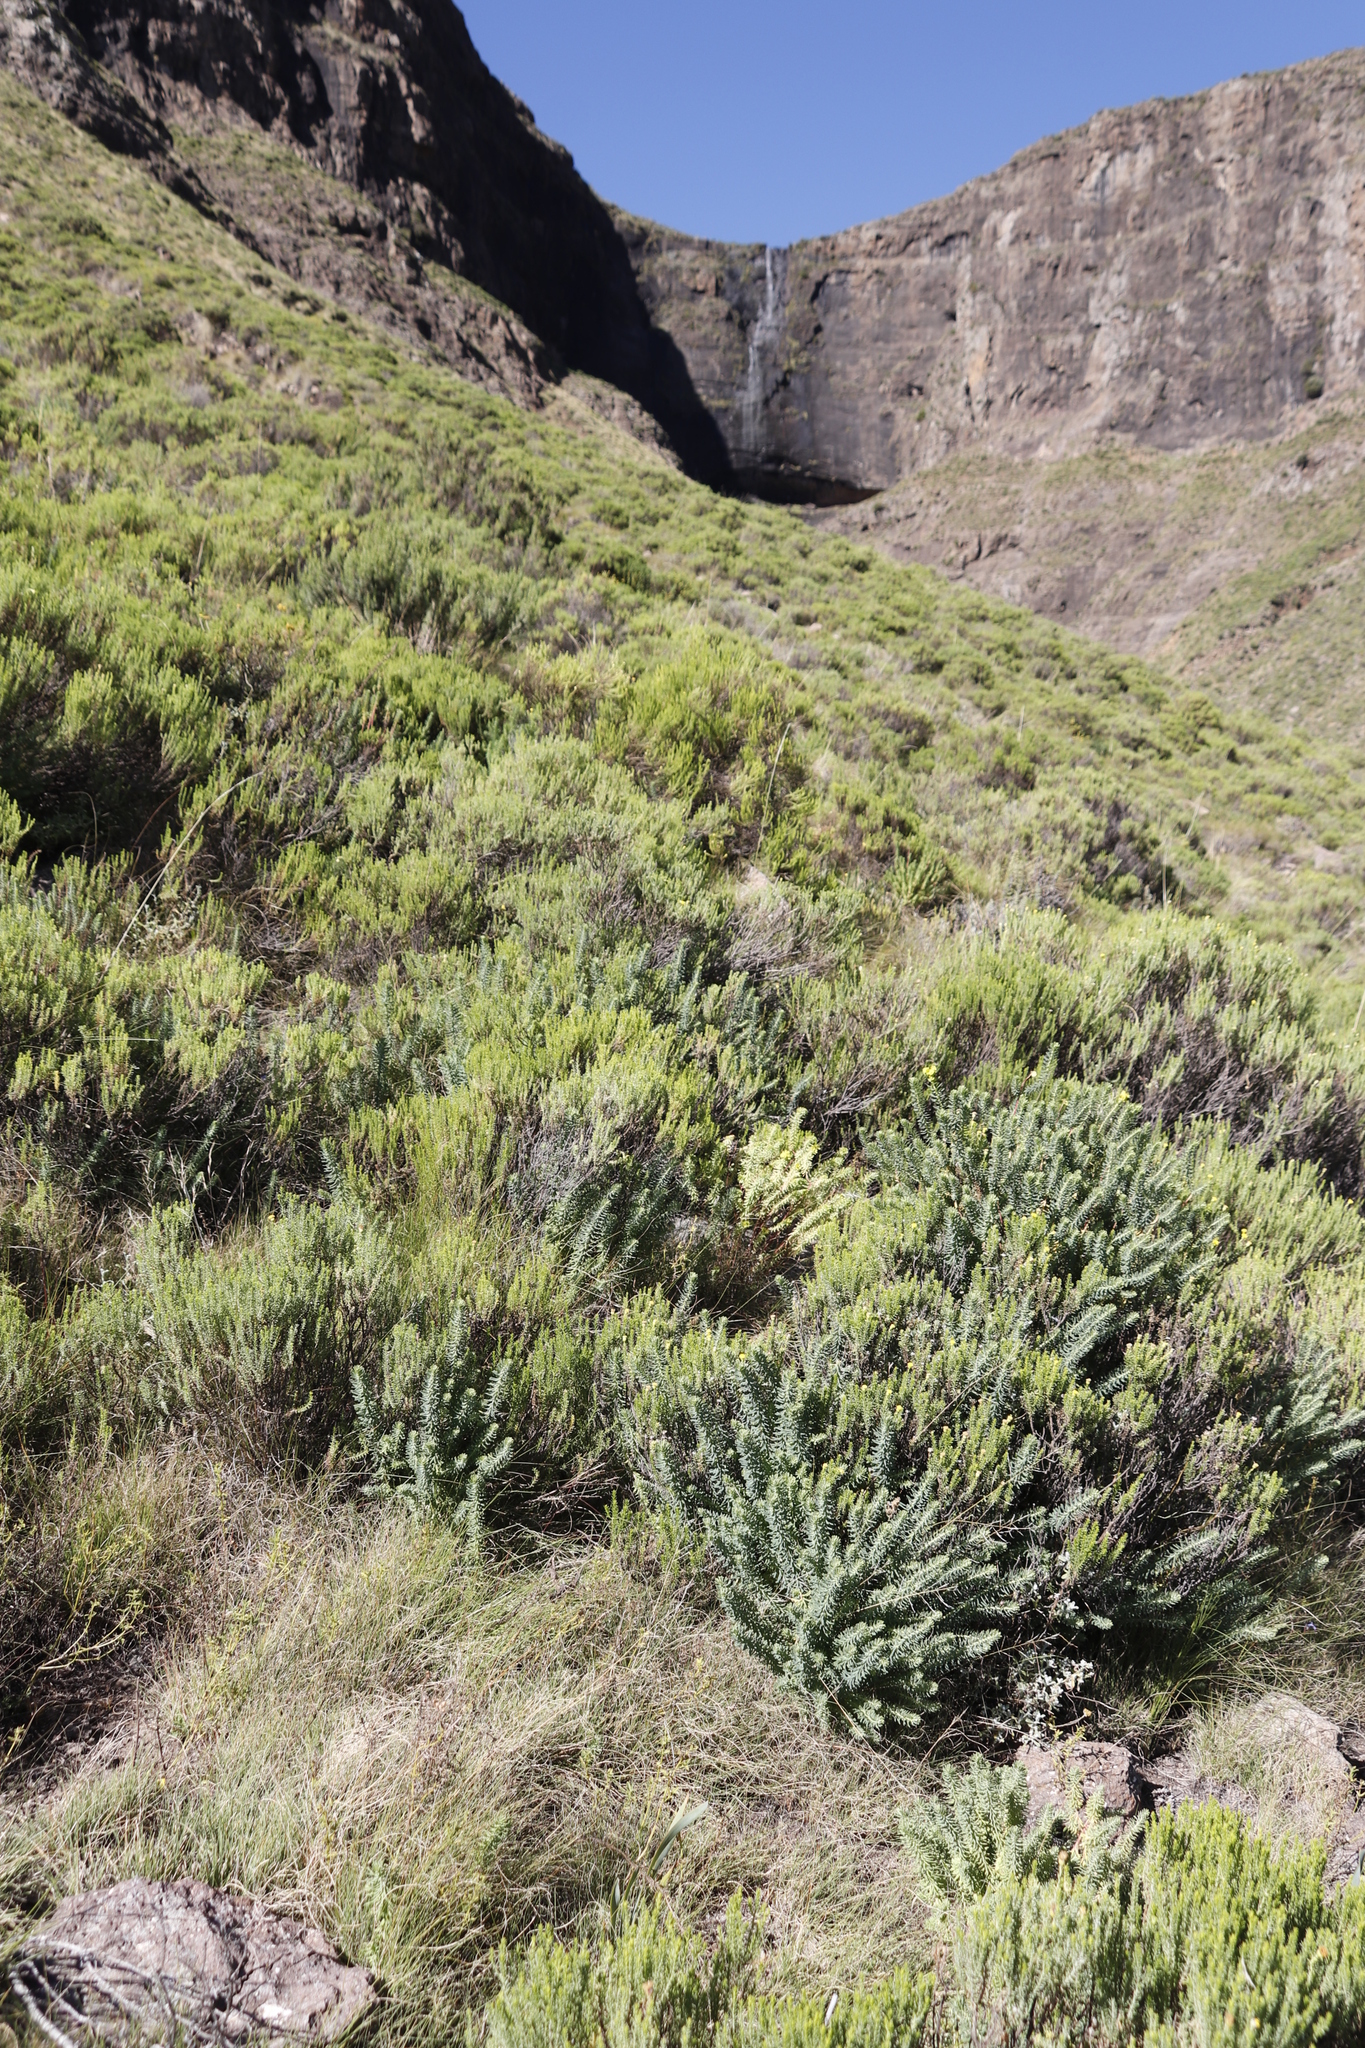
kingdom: Plantae
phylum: Tracheophyta
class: Magnoliopsida
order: Malpighiales
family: Euphorbiaceae
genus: Euphorbia
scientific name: Euphorbia natalensis
